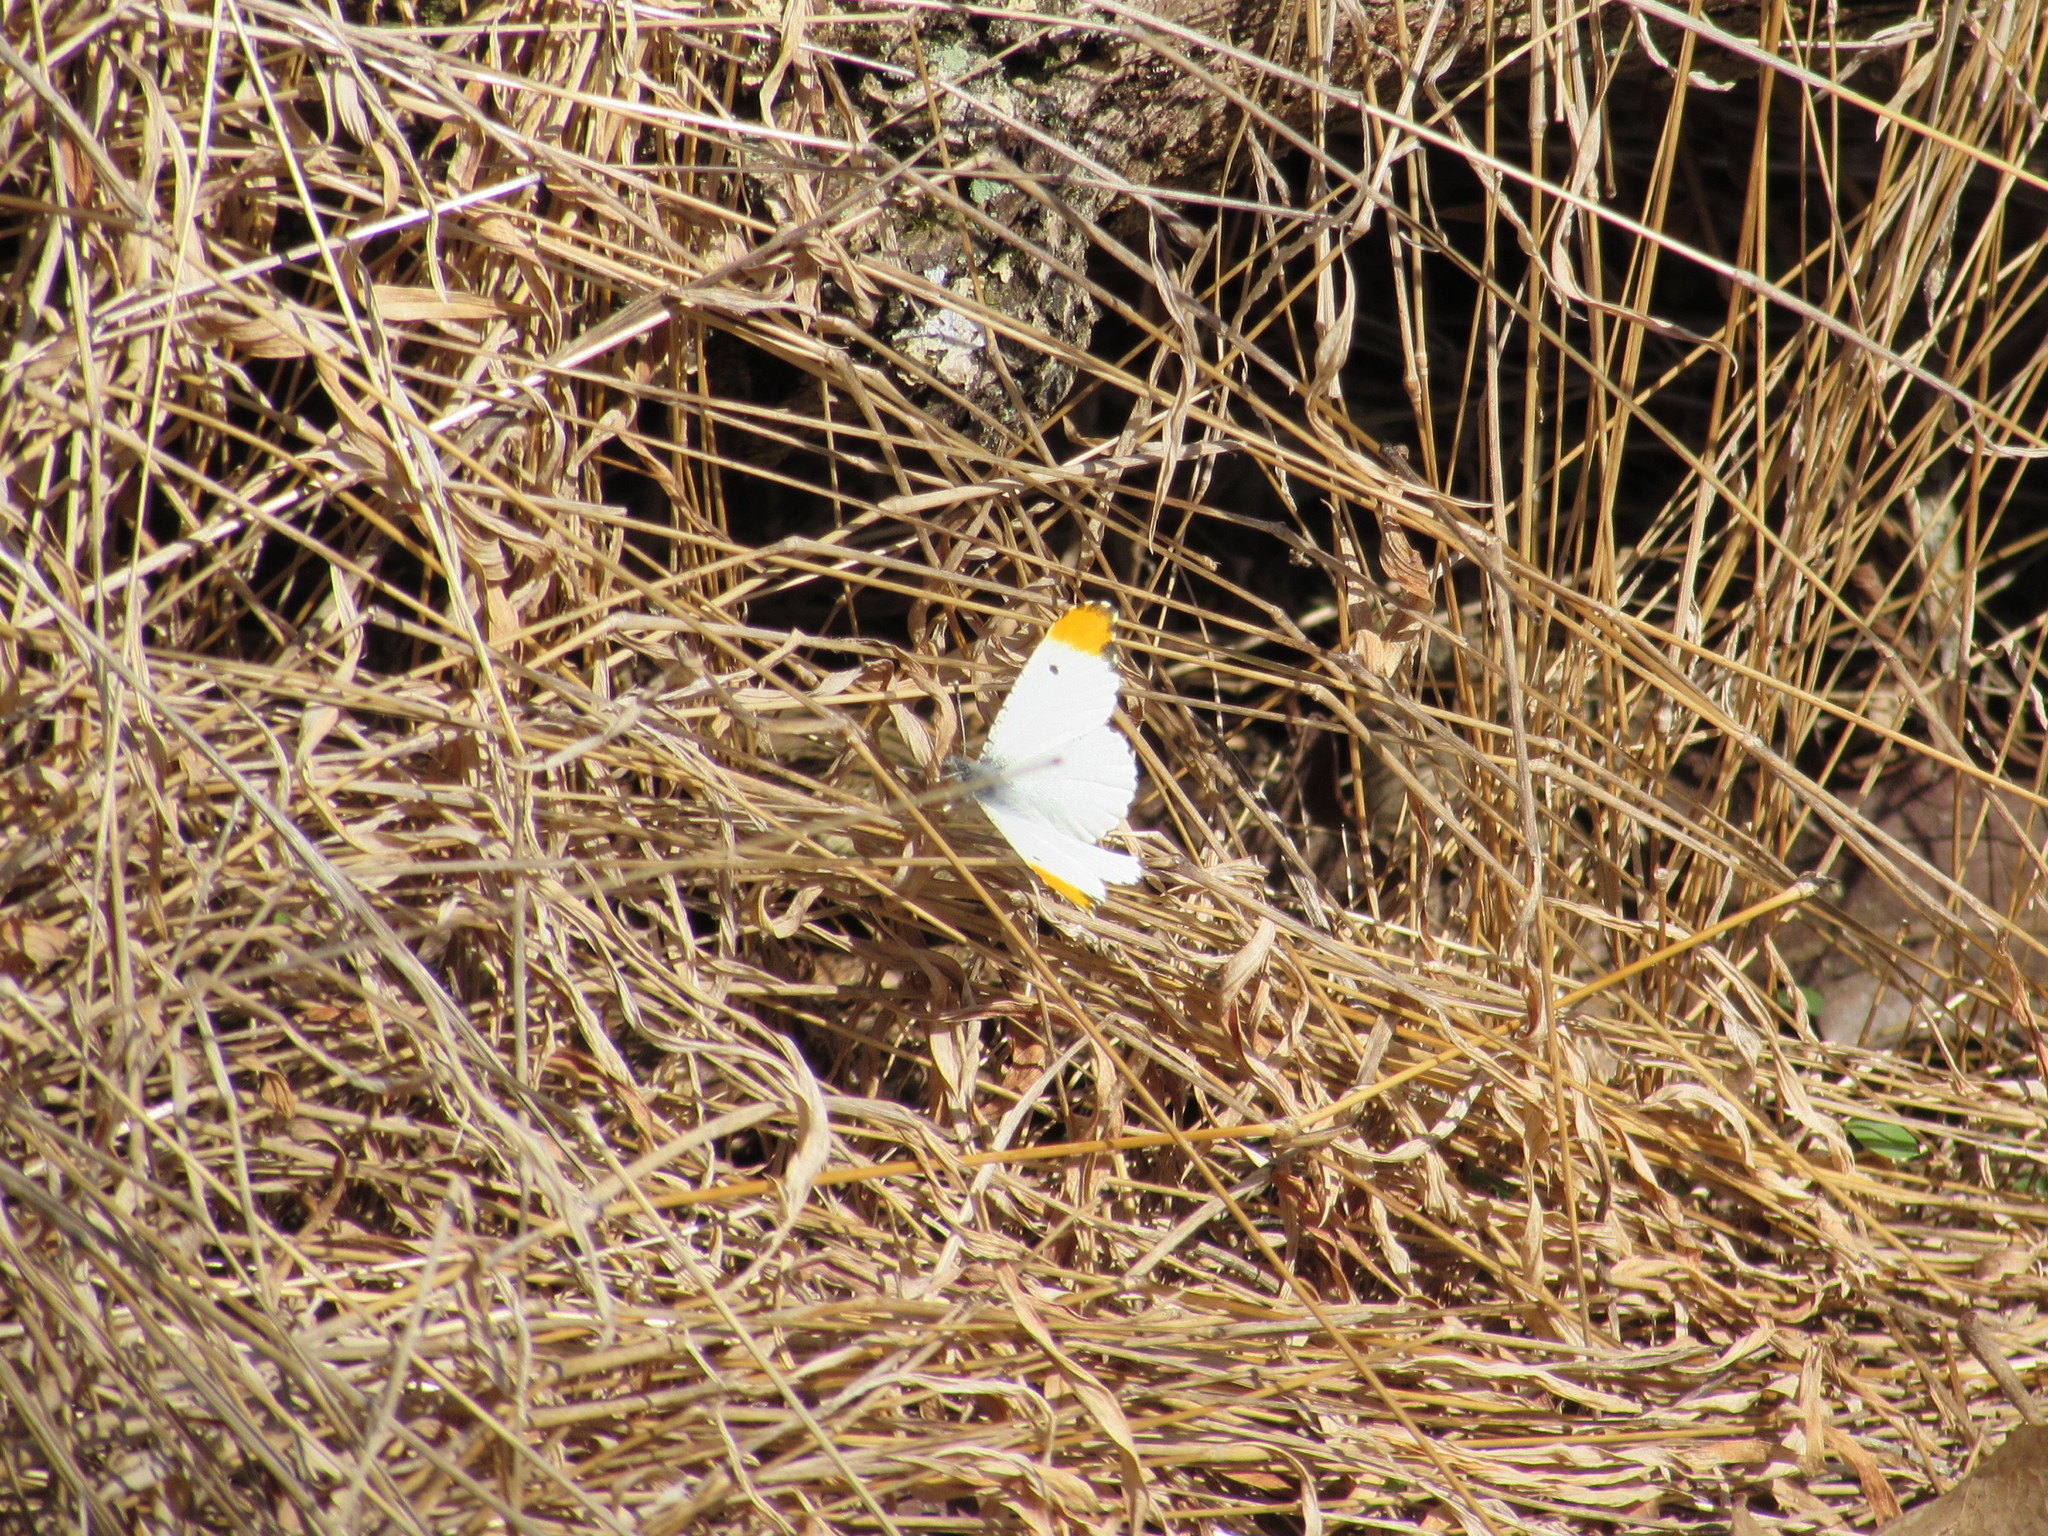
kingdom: Animalia
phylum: Arthropoda
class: Insecta
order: Lepidoptera
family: Pieridae
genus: Anthocharis
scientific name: Anthocharis midea
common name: Falcate orangetip
